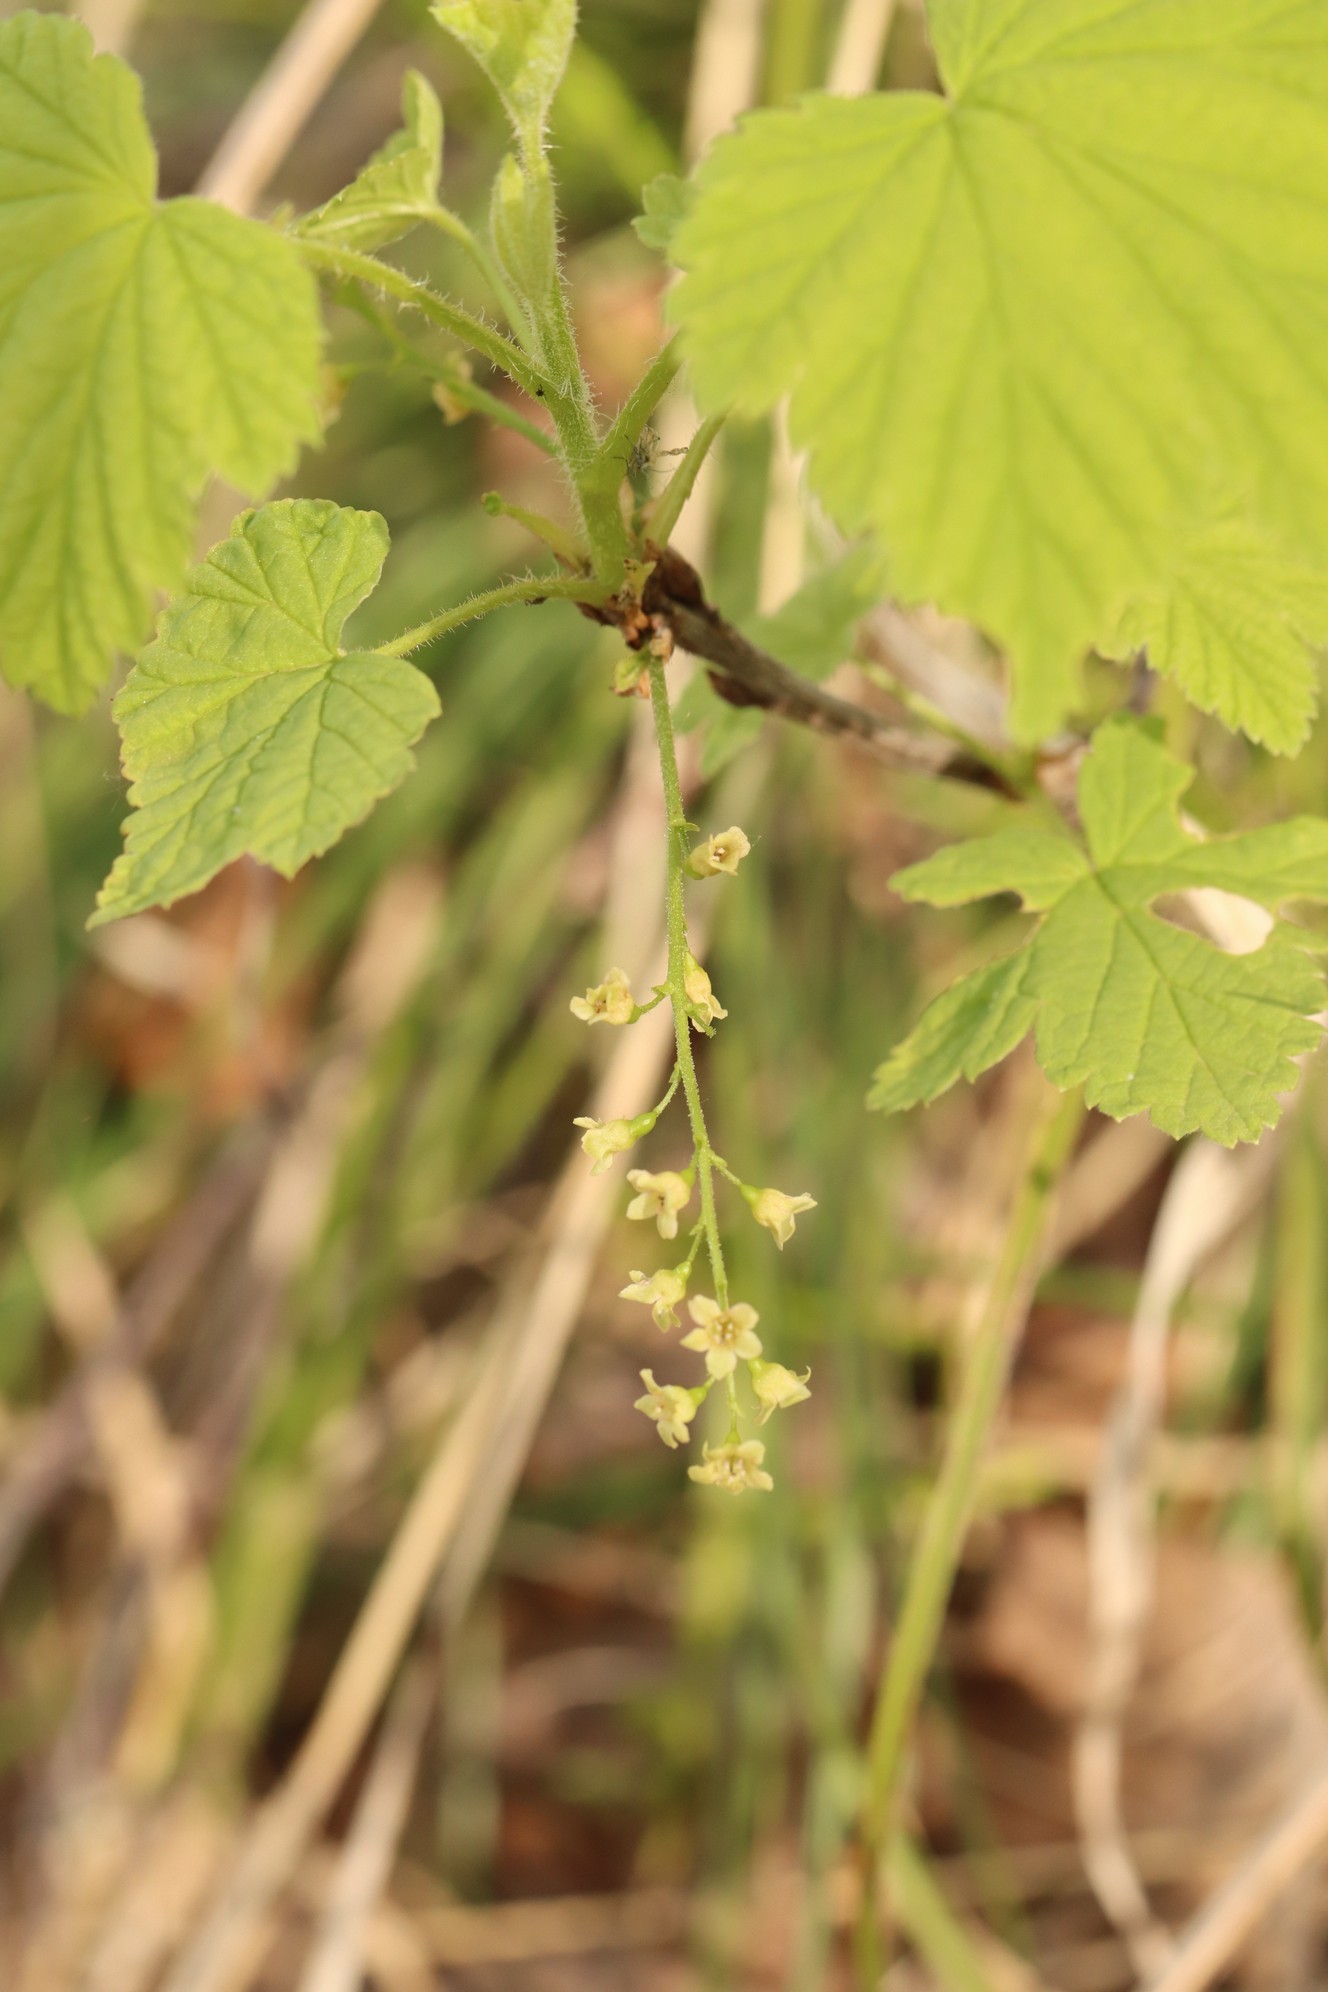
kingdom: Plantae
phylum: Tracheophyta
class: Magnoliopsida
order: Saxifragales
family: Grossulariaceae
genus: Ribes
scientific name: Ribes spicatum
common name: Downy currant
